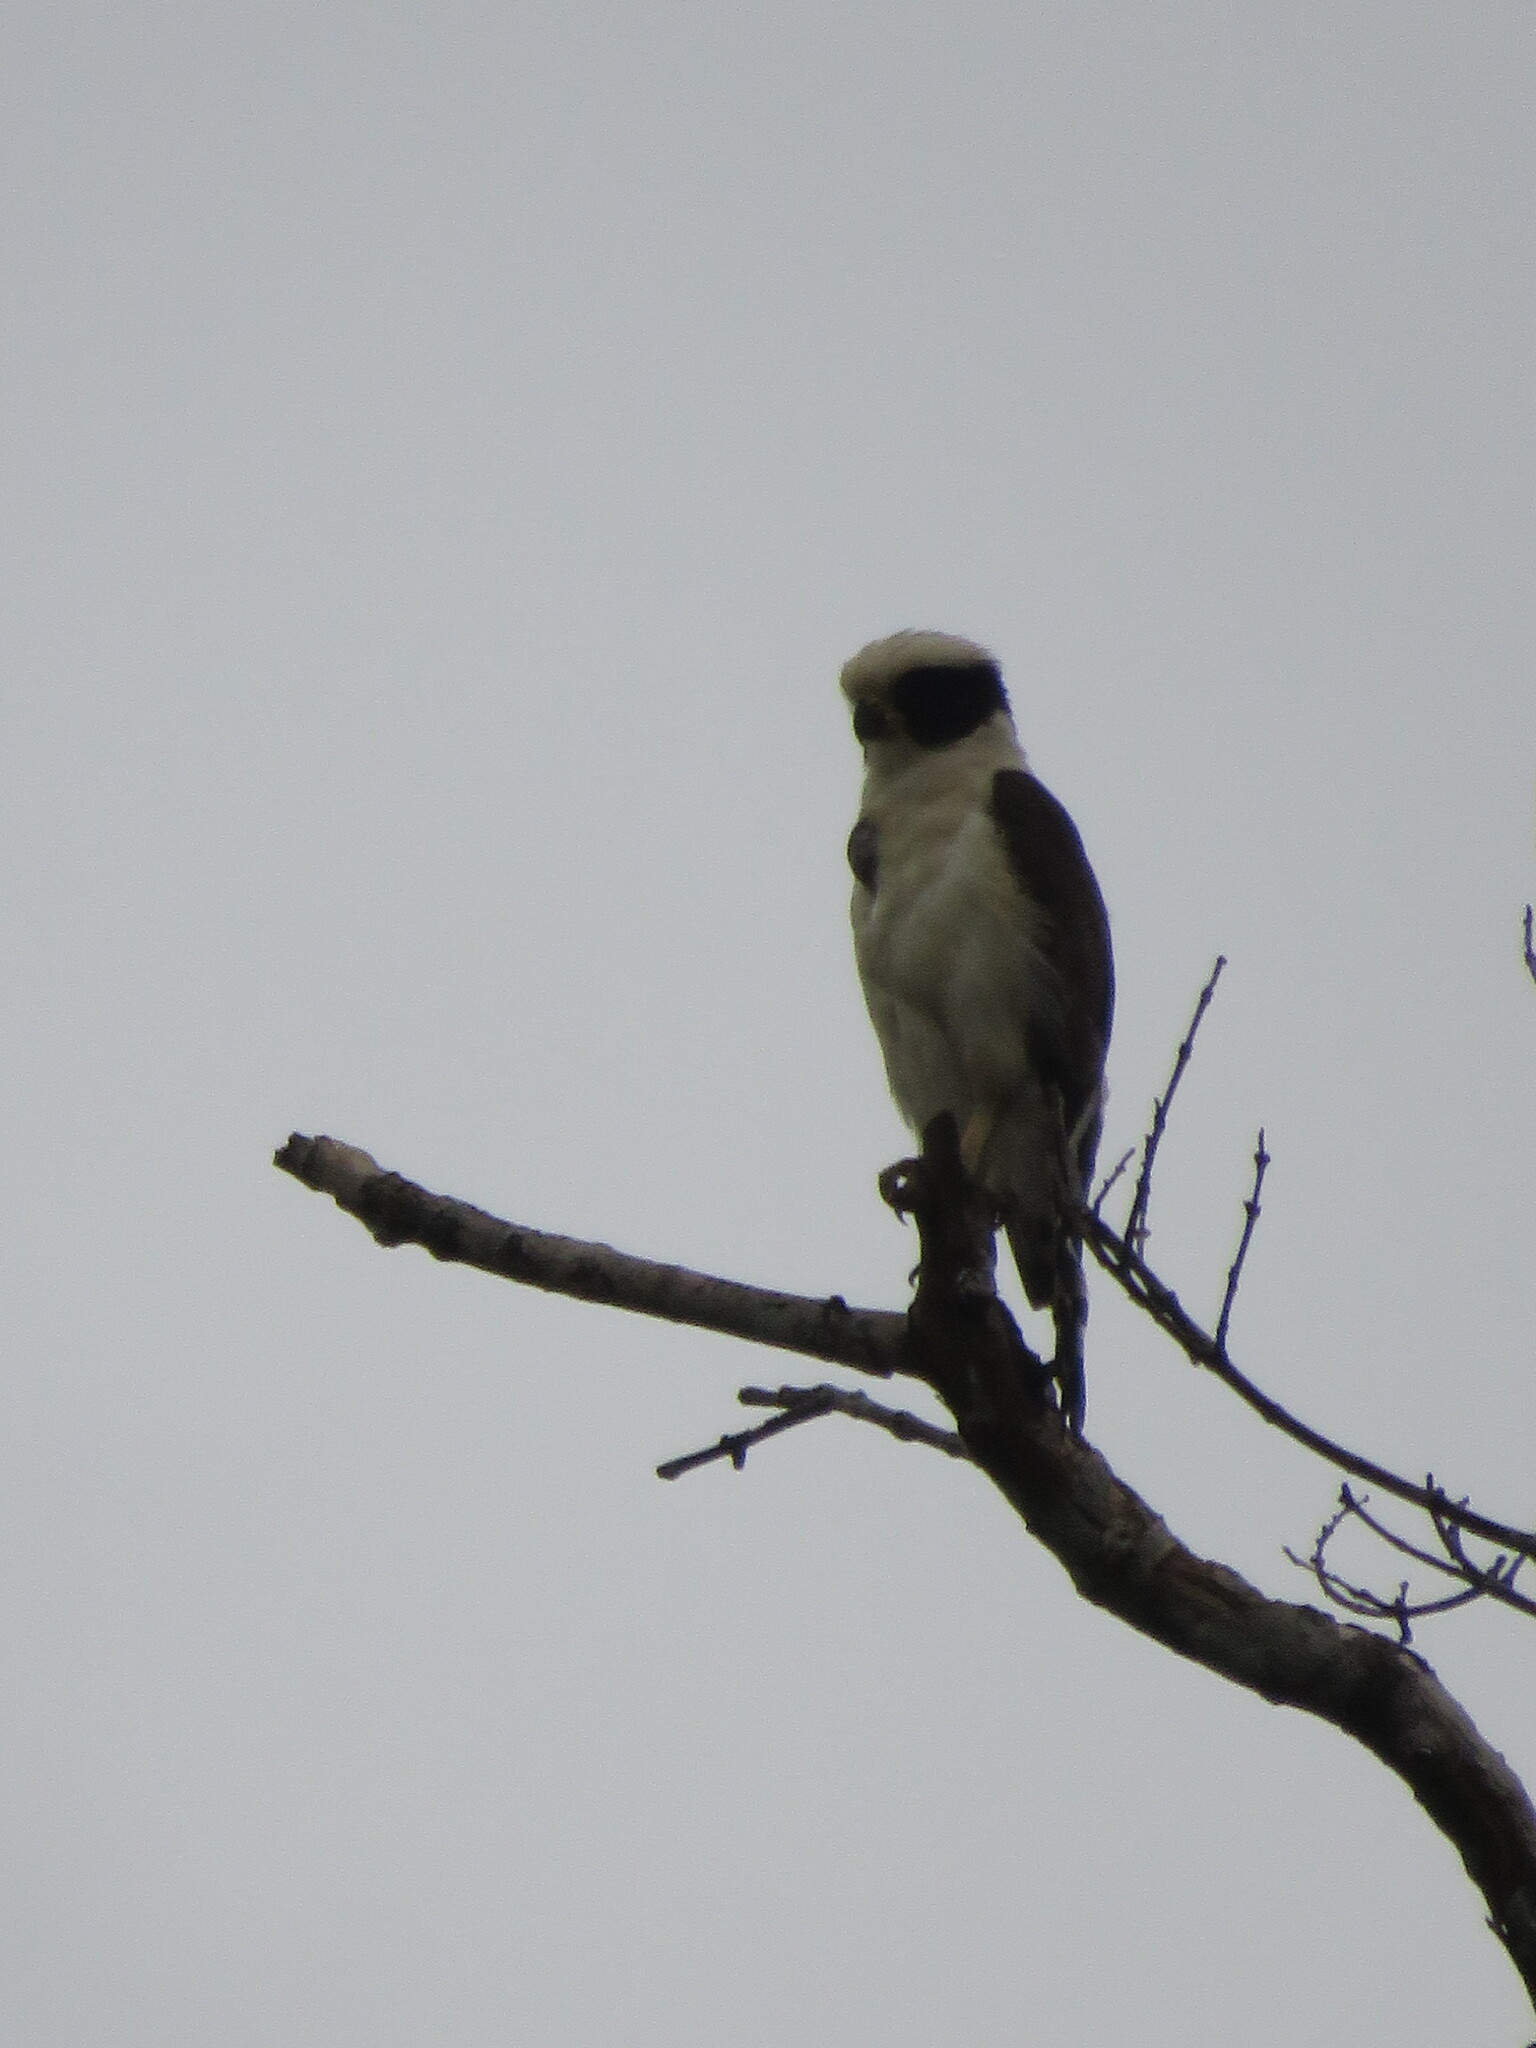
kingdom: Animalia
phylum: Chordata
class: Aves
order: Falconiformes
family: Falconidae
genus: Herpetotheres
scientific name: Herpetotheres cachinnans
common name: Laughing falcon
